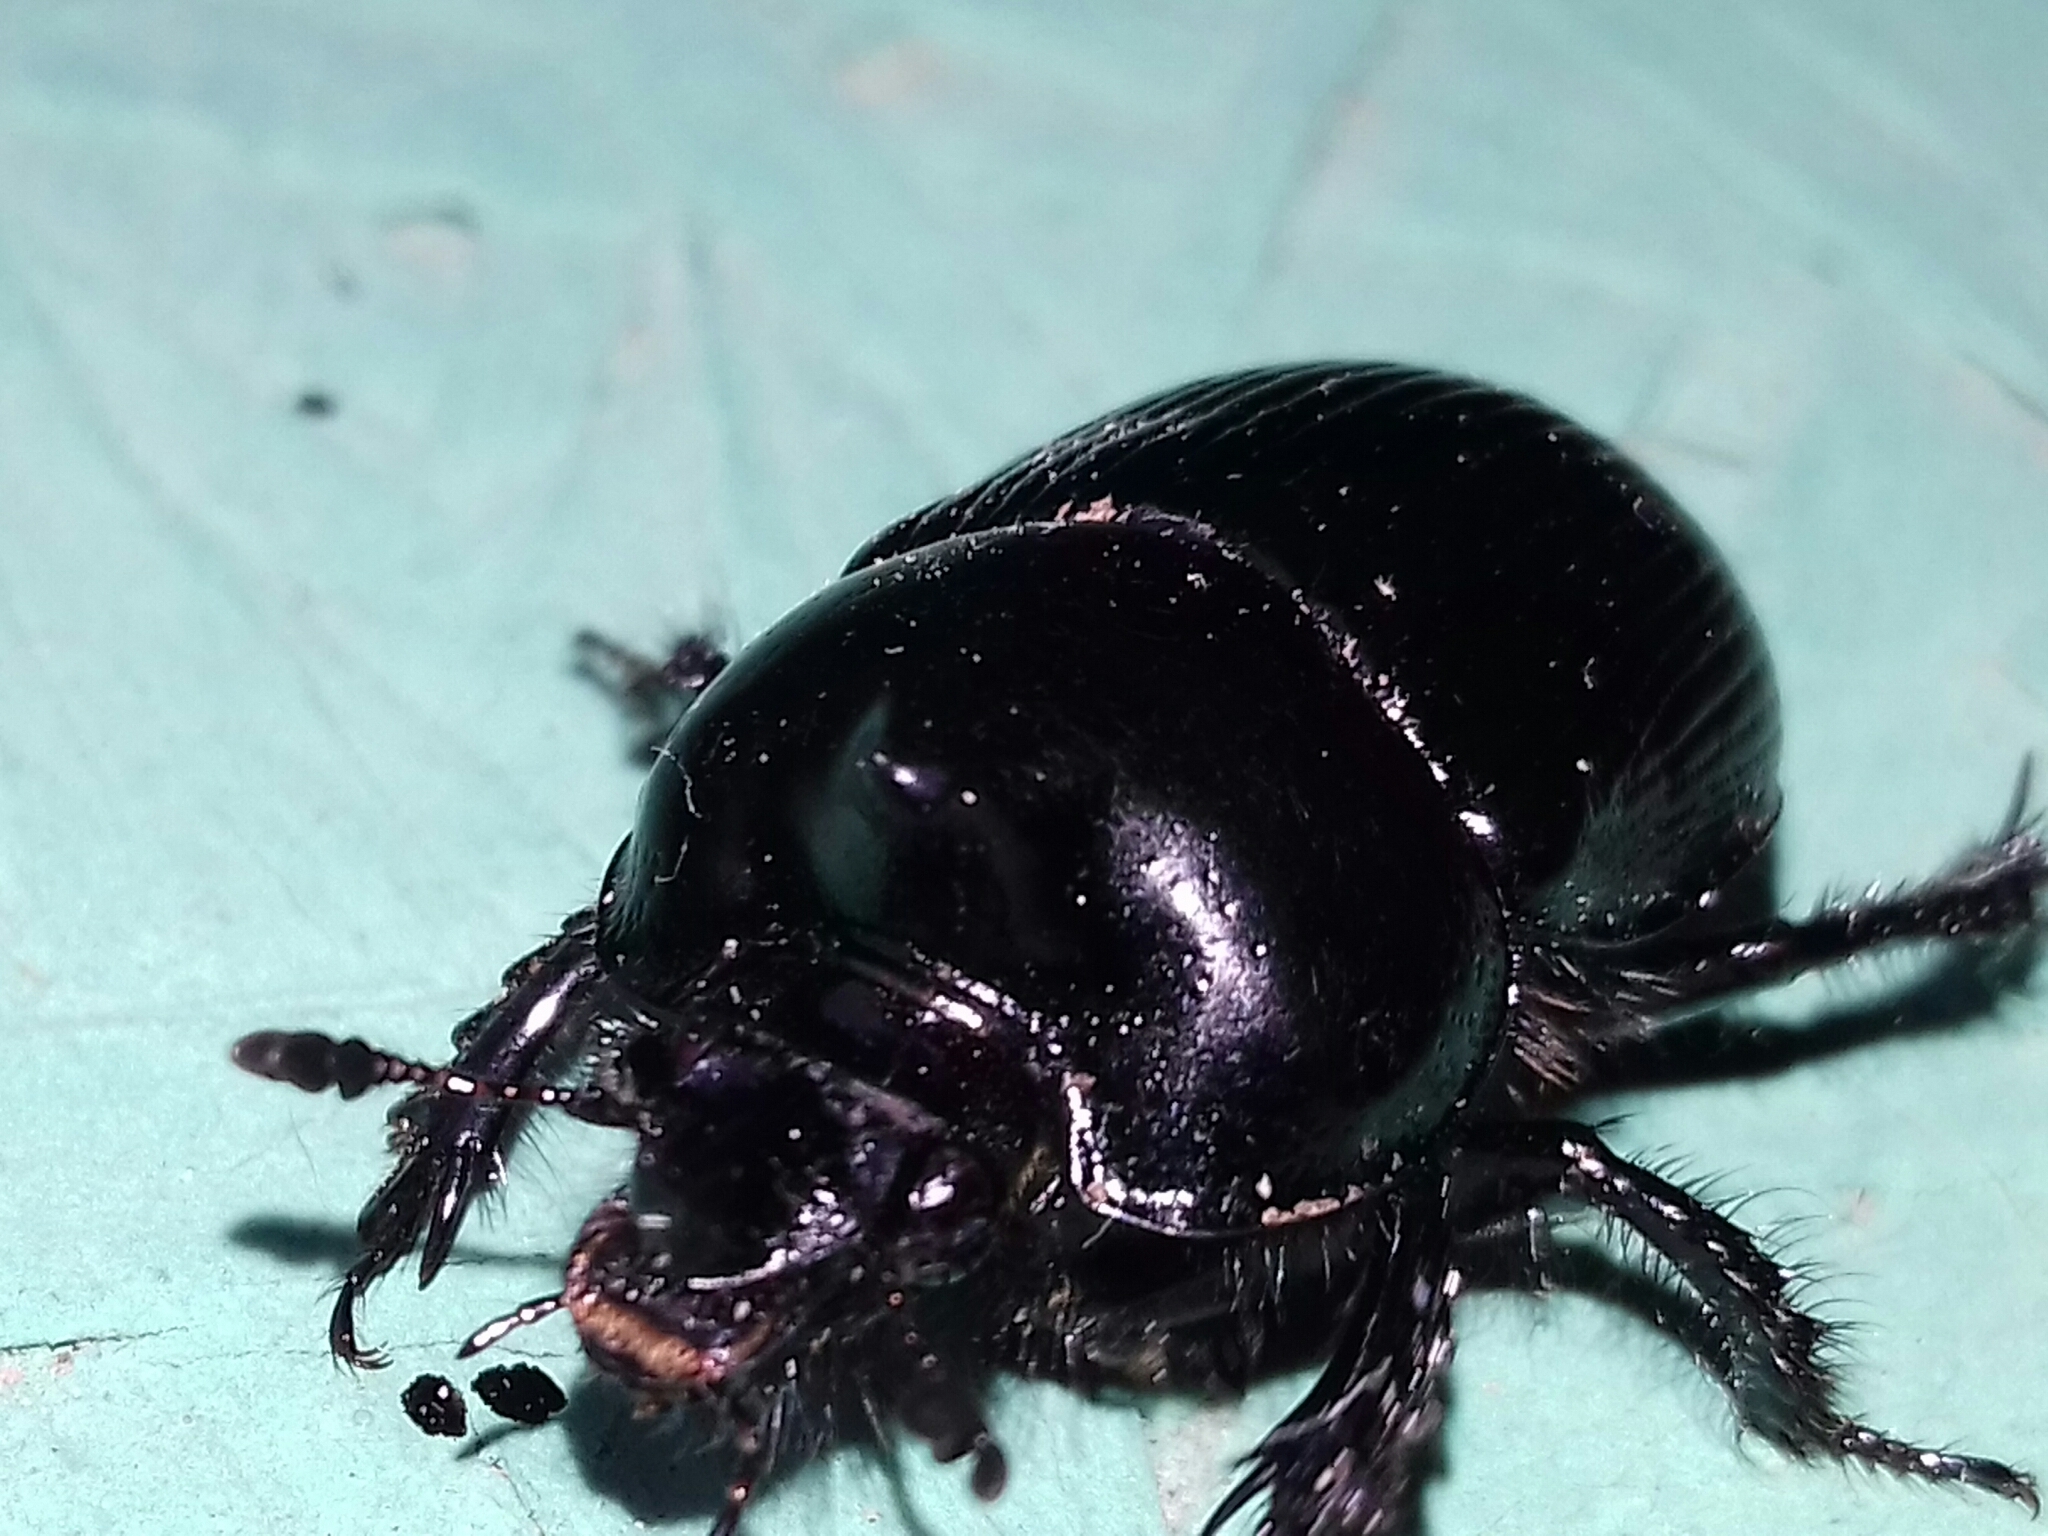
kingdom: Animalia
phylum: Arthropoda
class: Insecta
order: Coleoptera
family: Geotrupidae
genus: Ceratotrupes
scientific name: Ceratotrupes fronticornis
